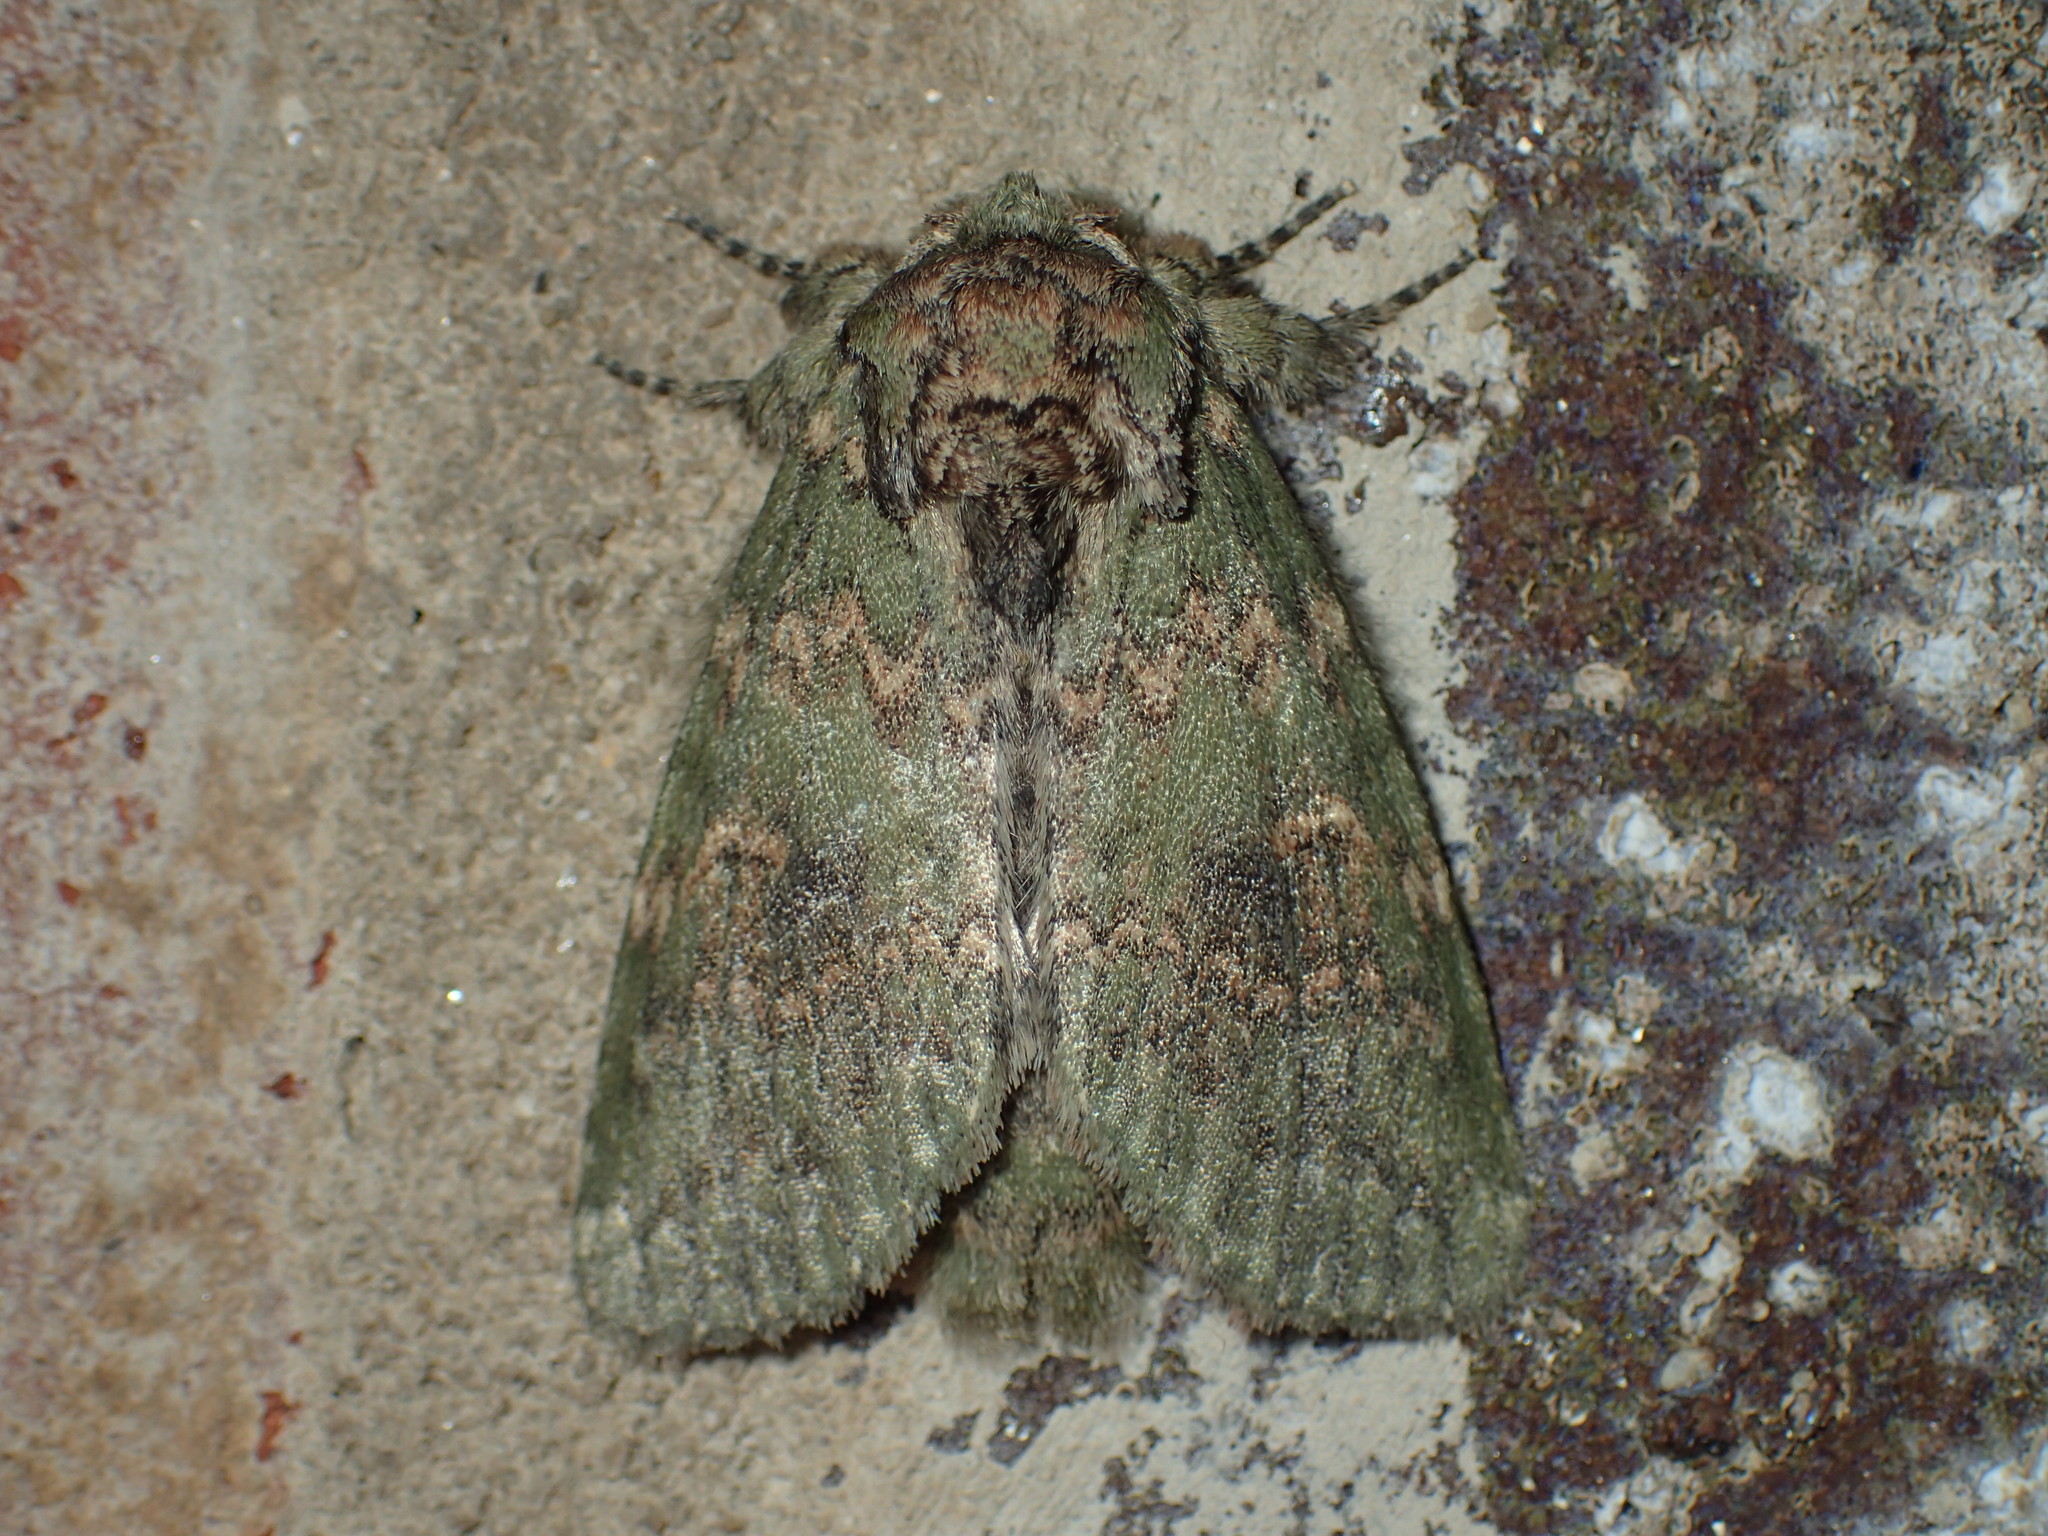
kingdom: Animalia
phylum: Arthropoda
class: Insecta
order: Lepidoptera
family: Notodontidae
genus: Disphragis
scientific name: Disphragis Cecrita biundata
